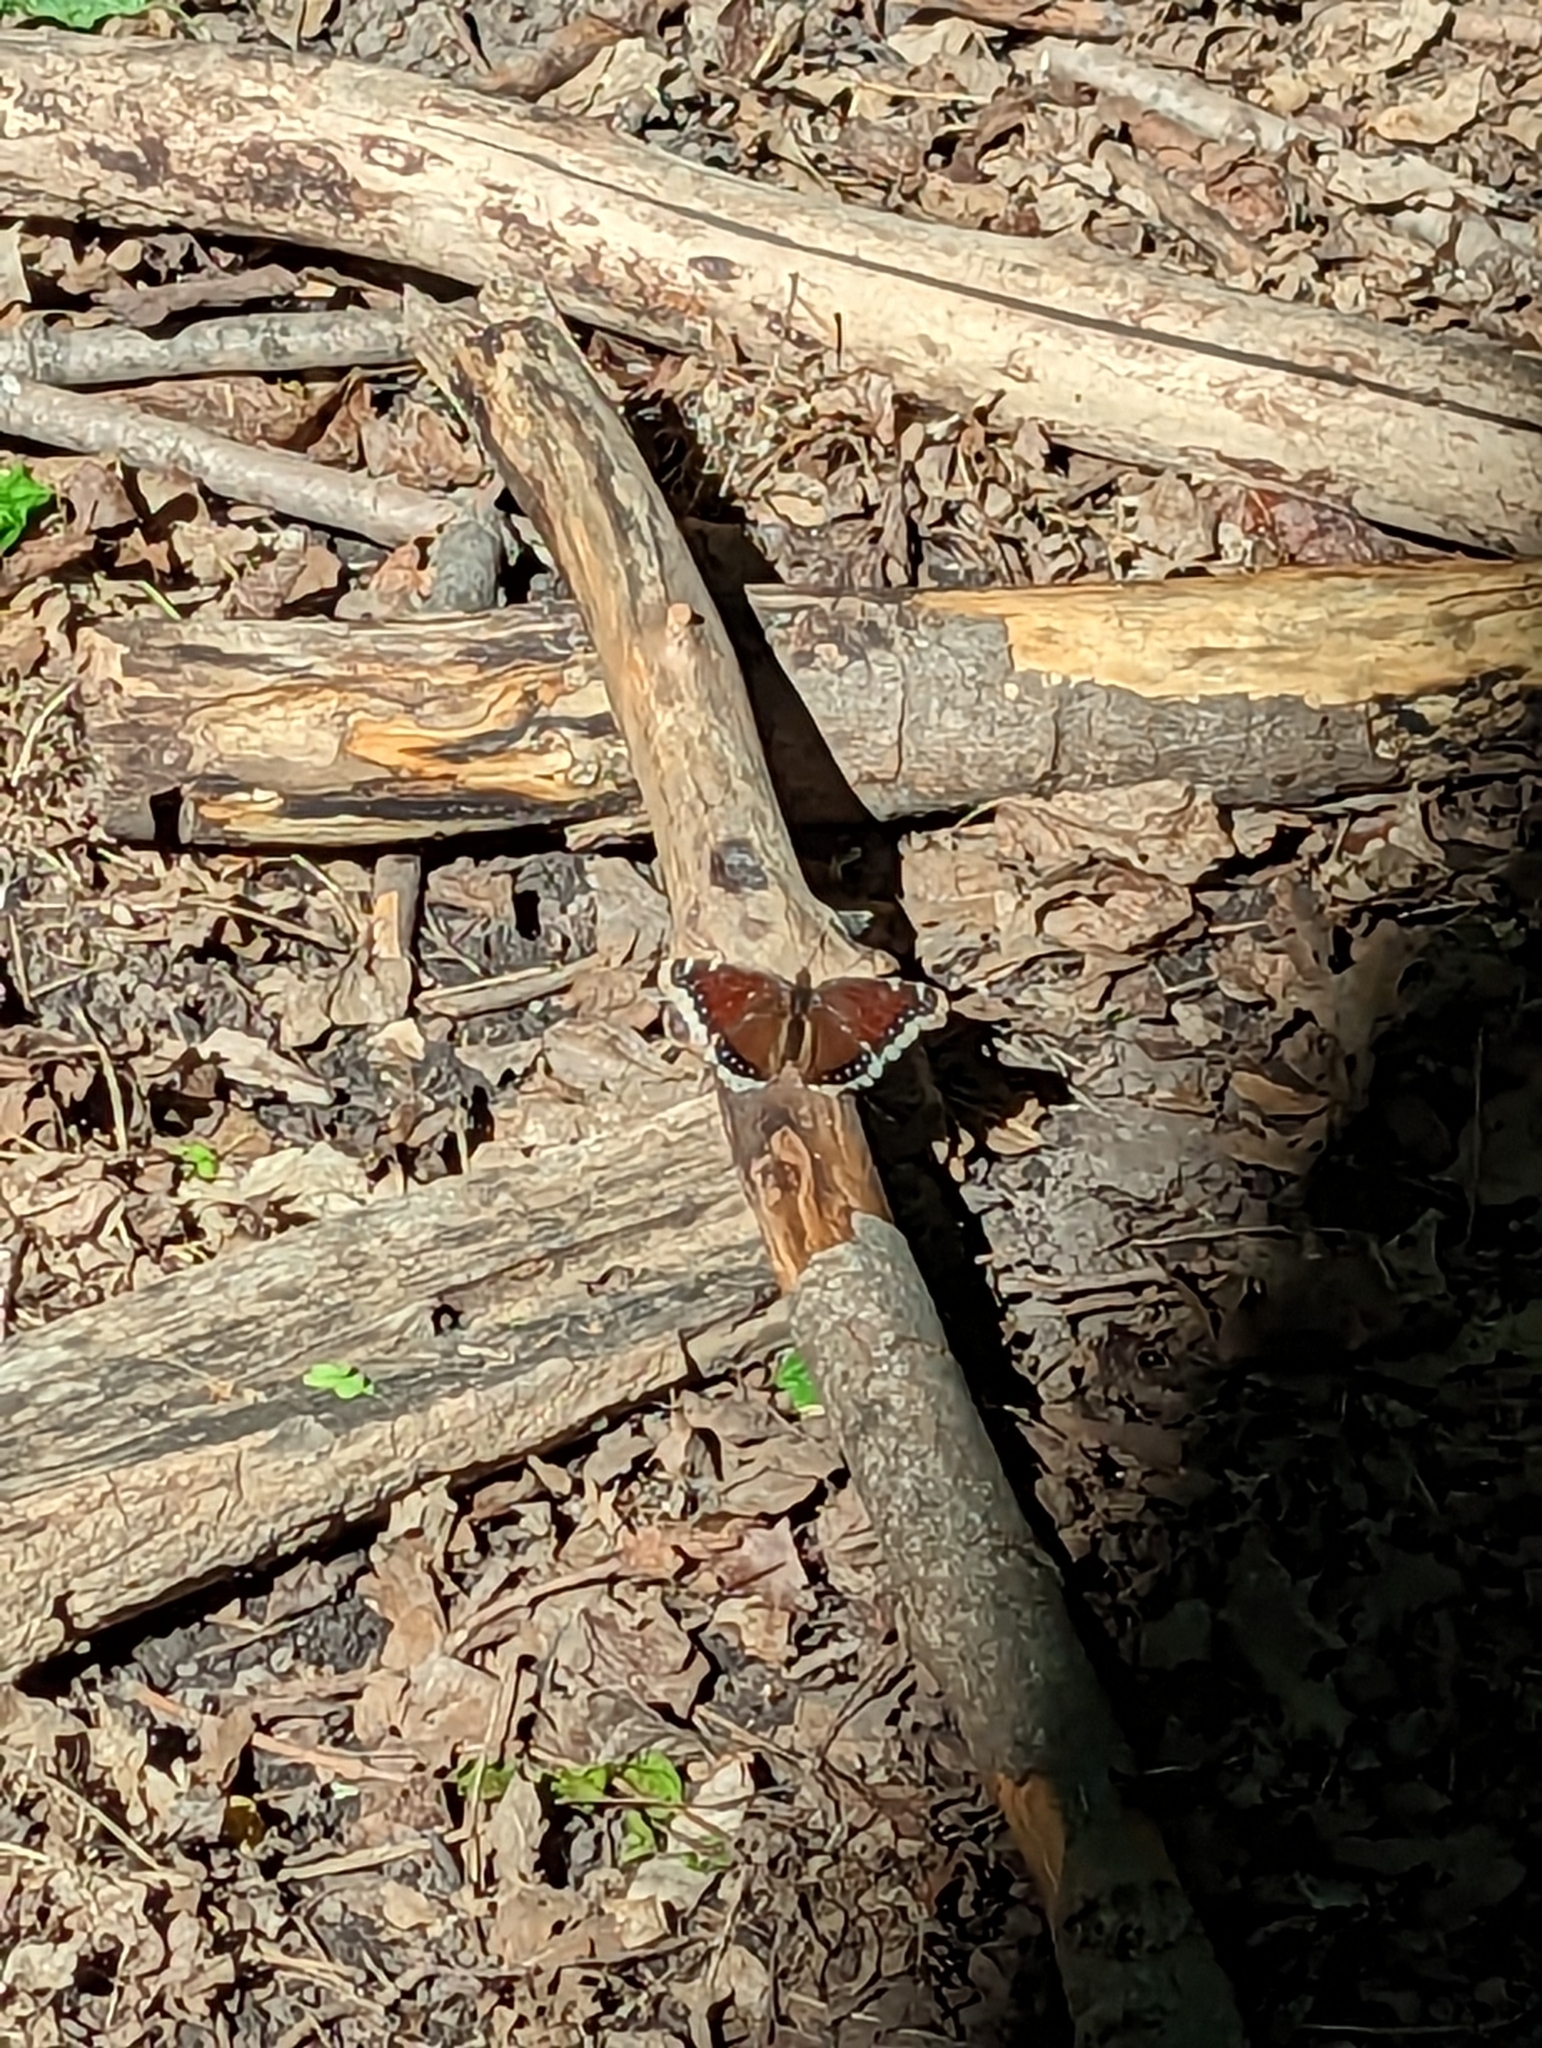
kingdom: Animalia
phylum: Arthropoda
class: Insecta
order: Lepidoptera
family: Nymphalidae
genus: Nymphalis
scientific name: Nymphalis antiopa
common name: Camberwell beauty
